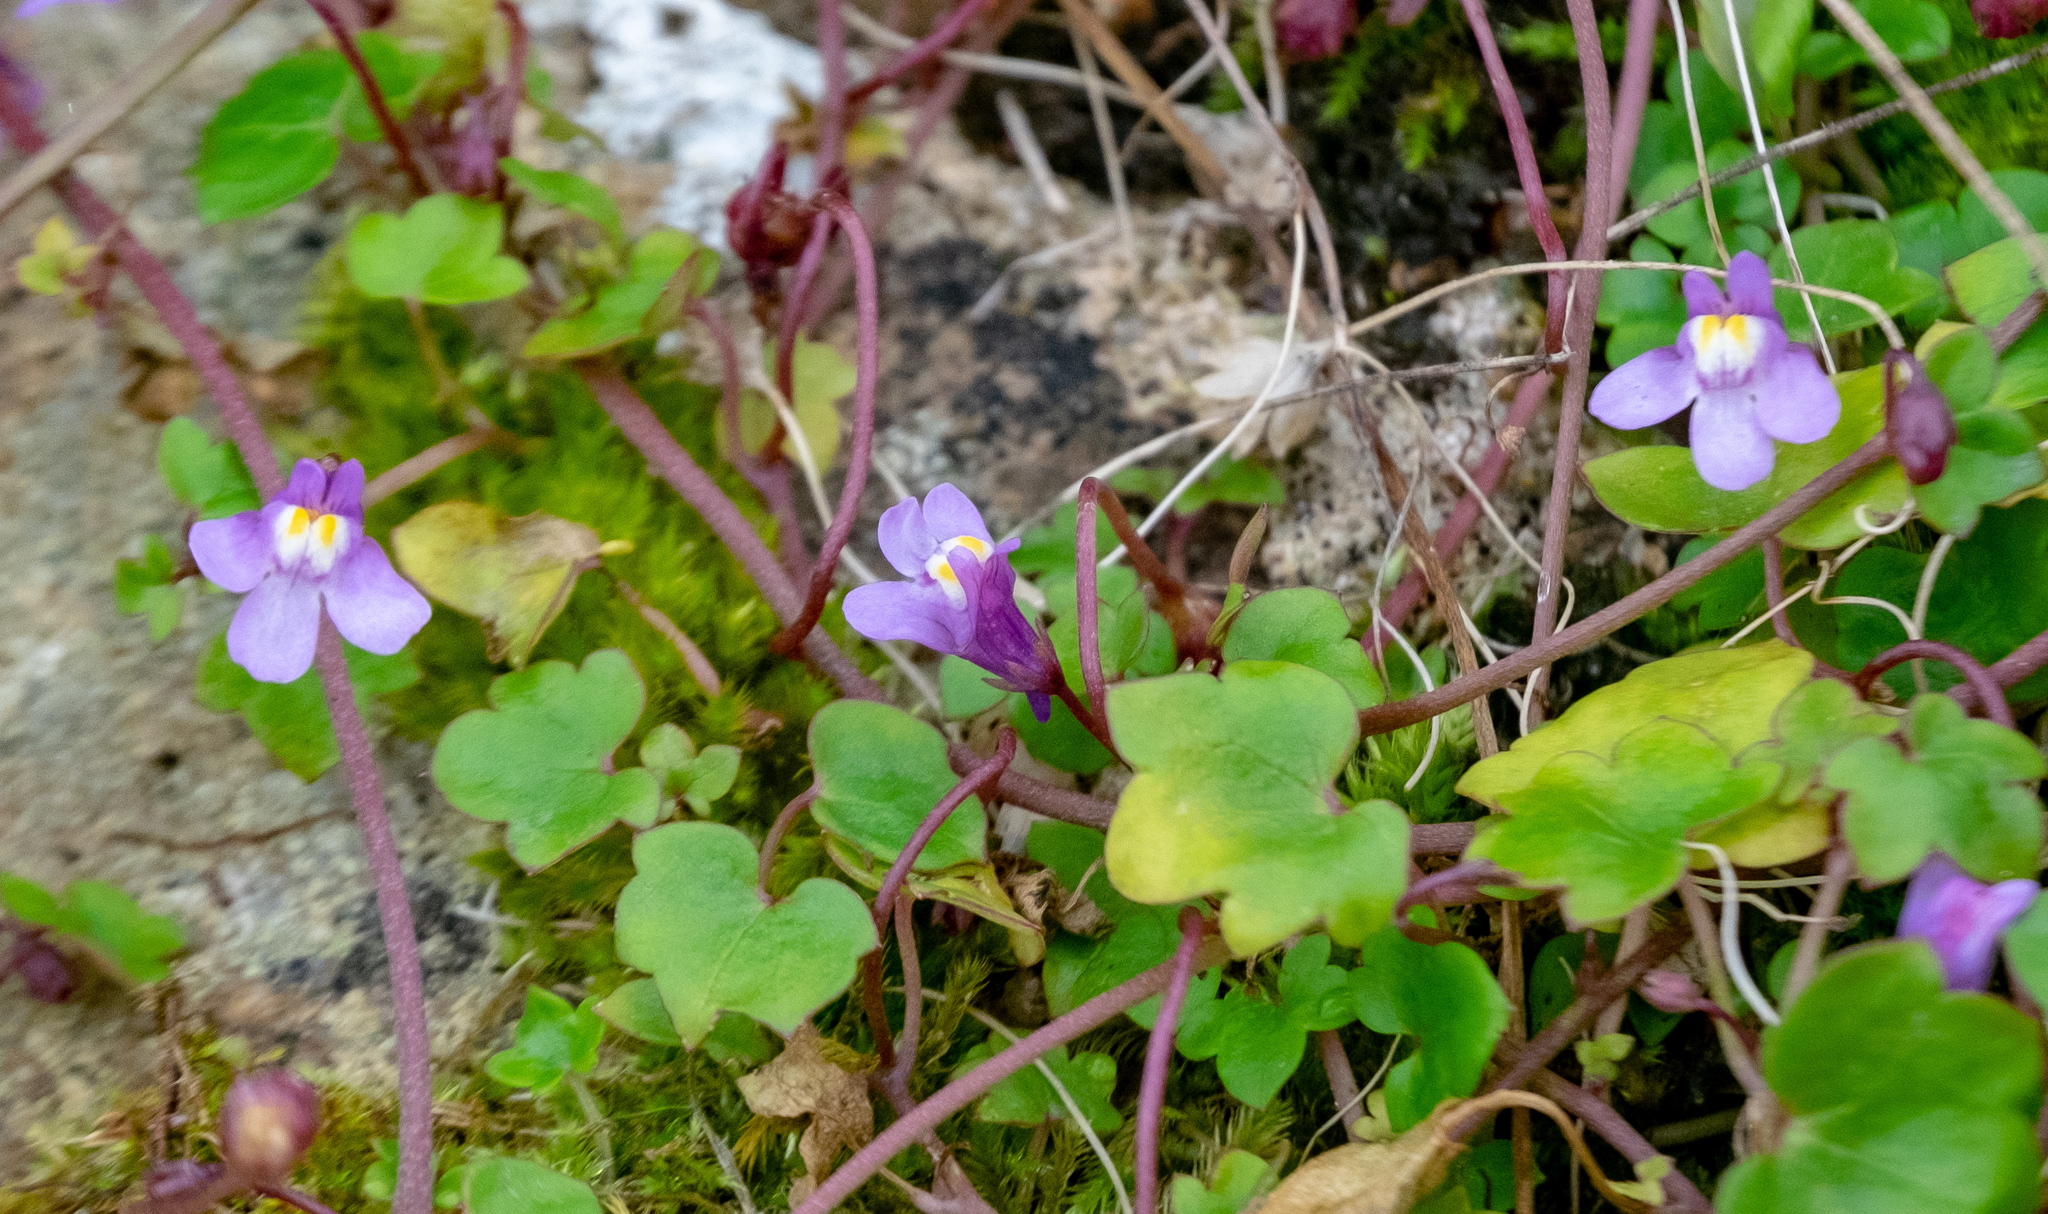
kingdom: Plantae
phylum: Tracheophyta
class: Magnoliopsida
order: Lamiales
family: Plantaginaceae
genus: Cymbalaria
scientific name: Cymbalaria muralis
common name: Ivy-leaved toadflax
